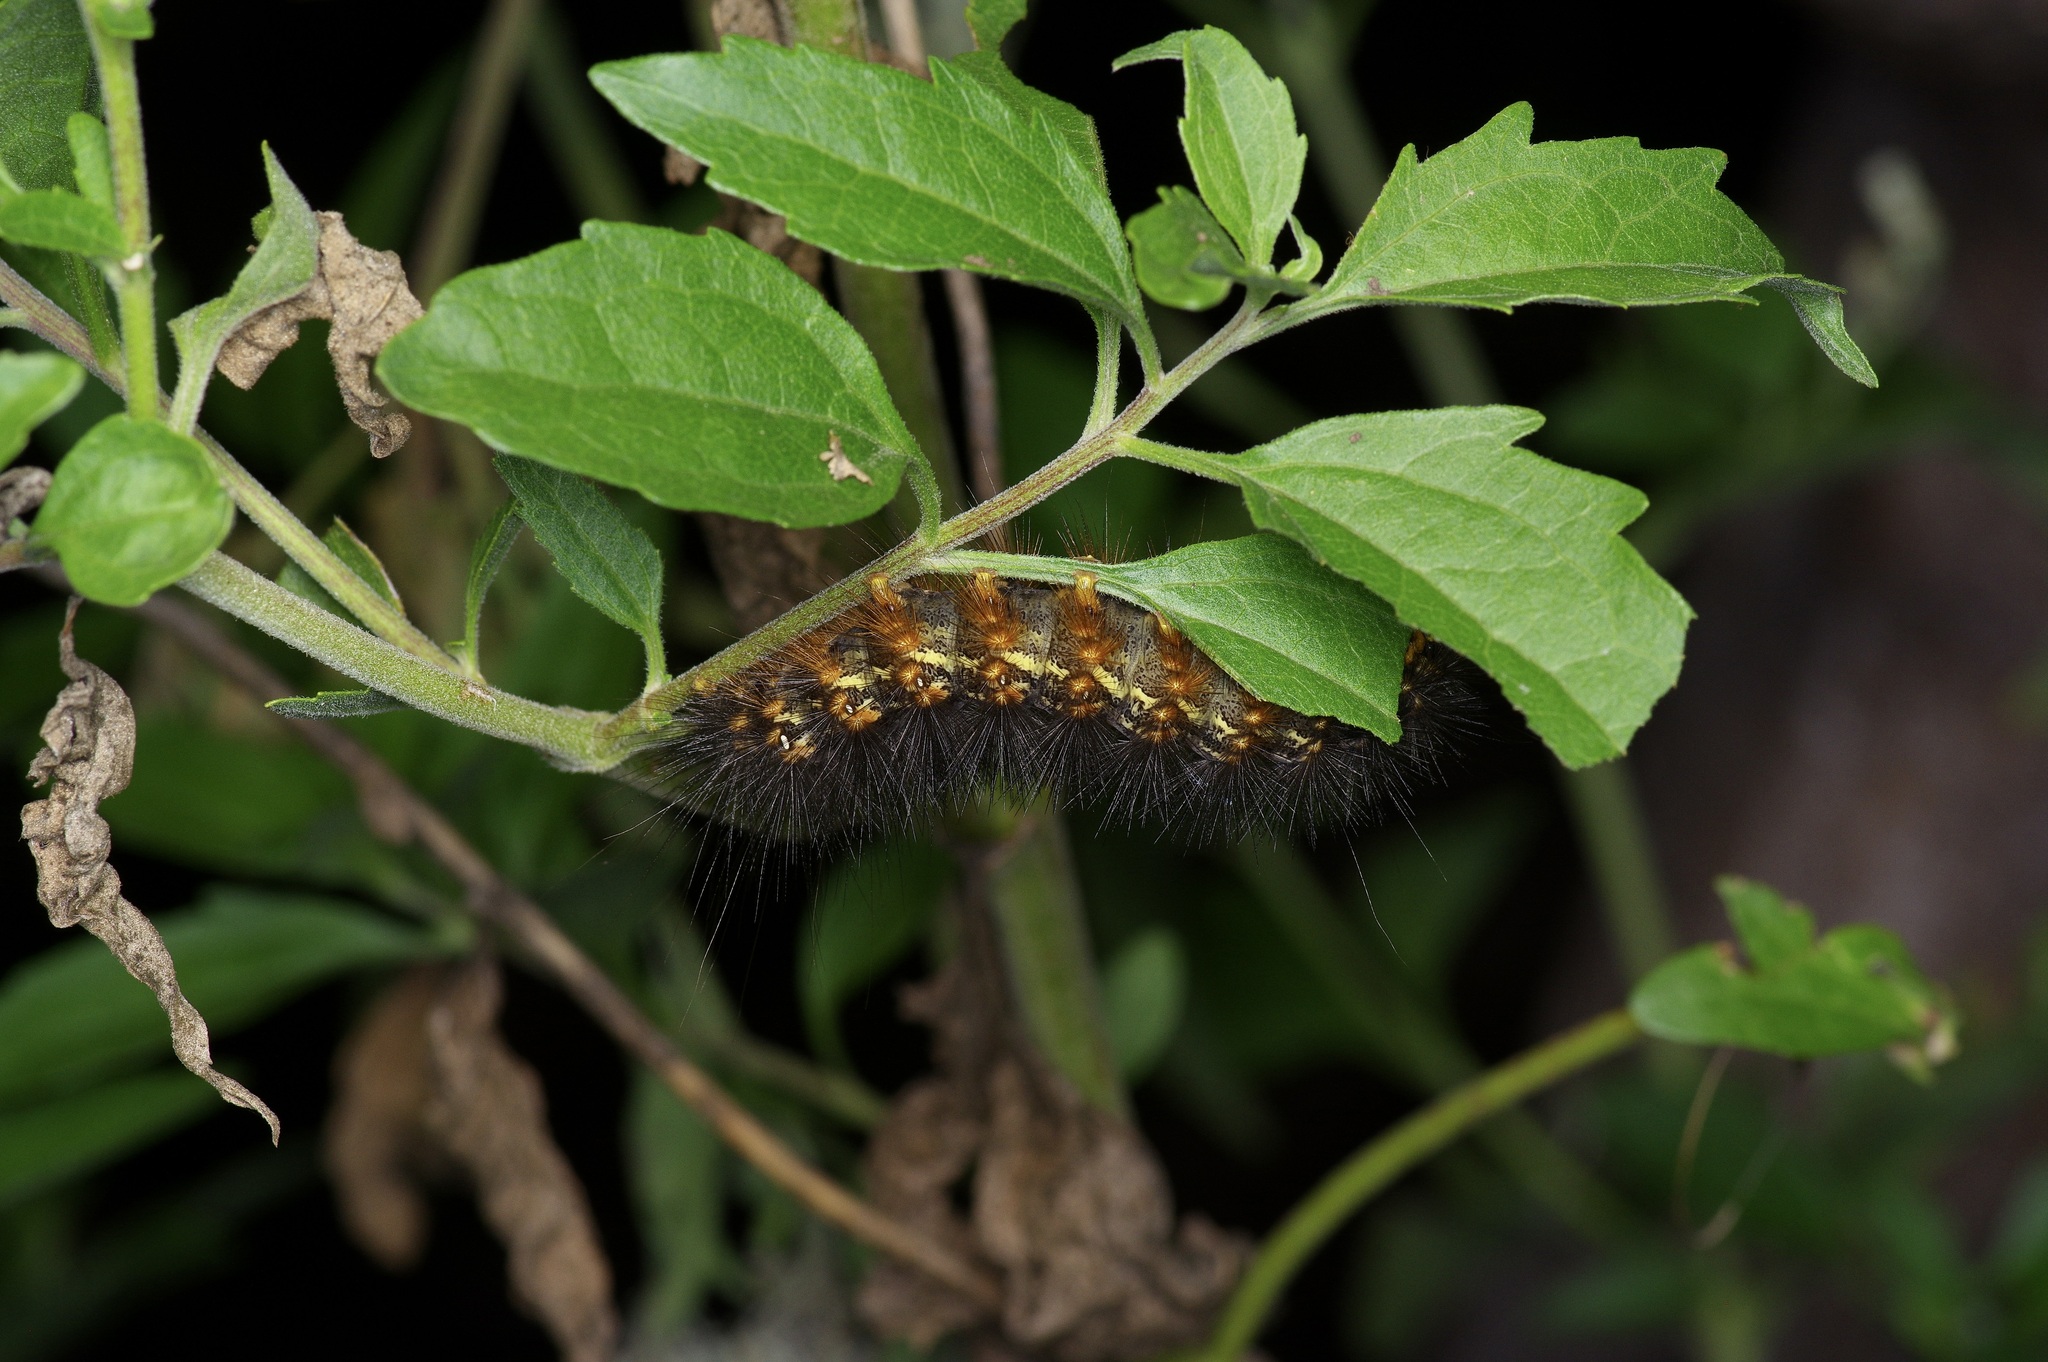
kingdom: Animalia
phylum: Arthropoda
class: Insecta
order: Lepidoptera
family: Erebidae
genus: Estigmene
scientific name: Estigmene acrea
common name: Salt marsh moth
